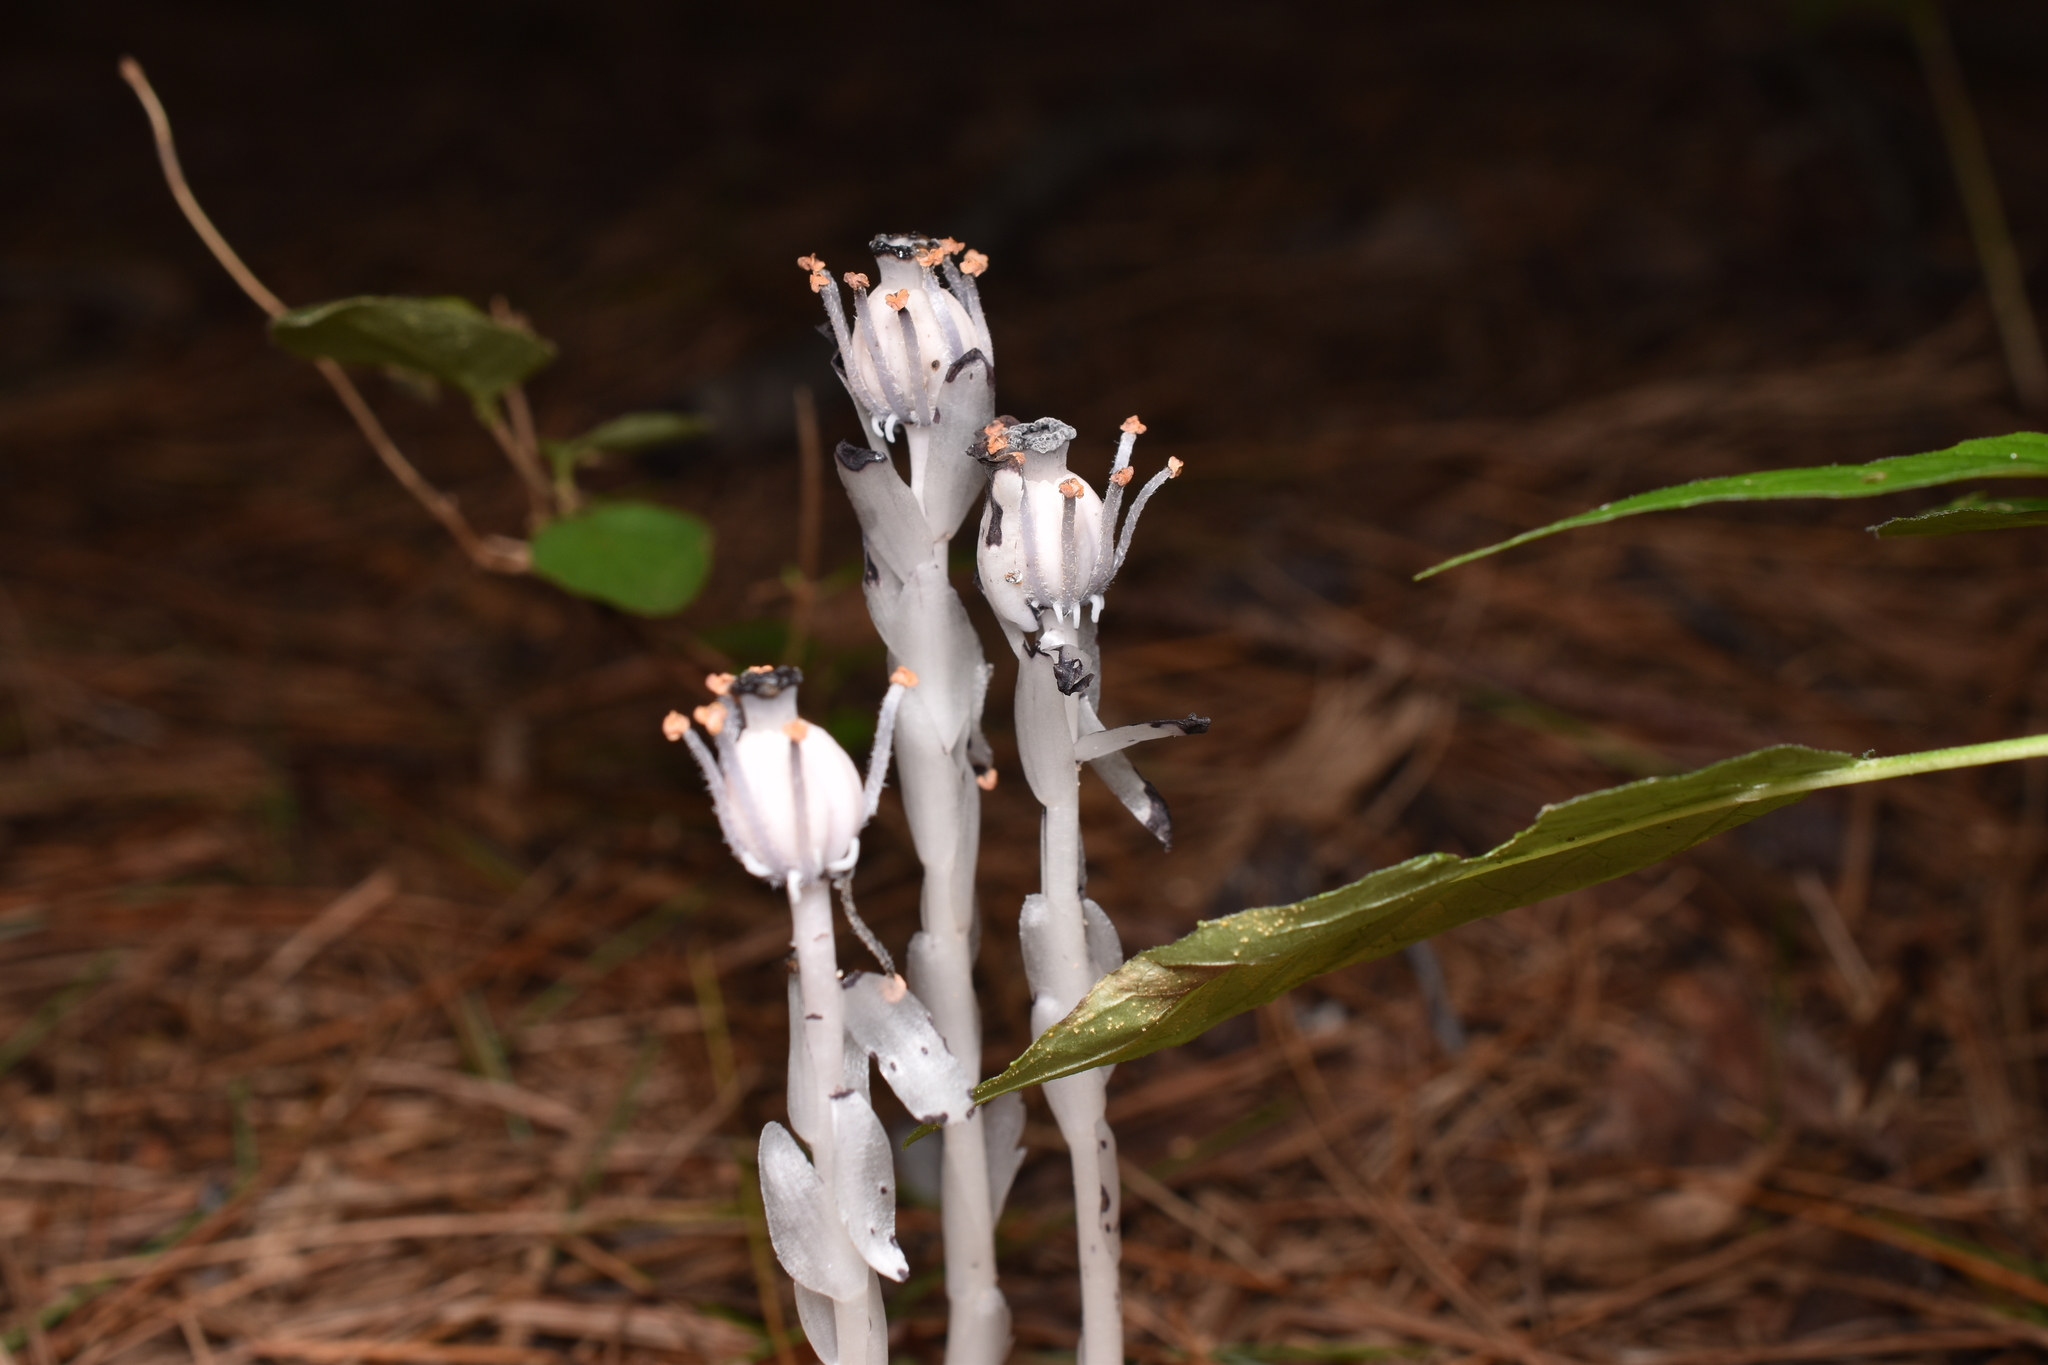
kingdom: Plantae
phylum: Tracheophyta
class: Magnoliopsida
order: Ericales
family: Ericaceae
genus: Monotropa
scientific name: Monotropa uniflora
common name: Convulsion root
